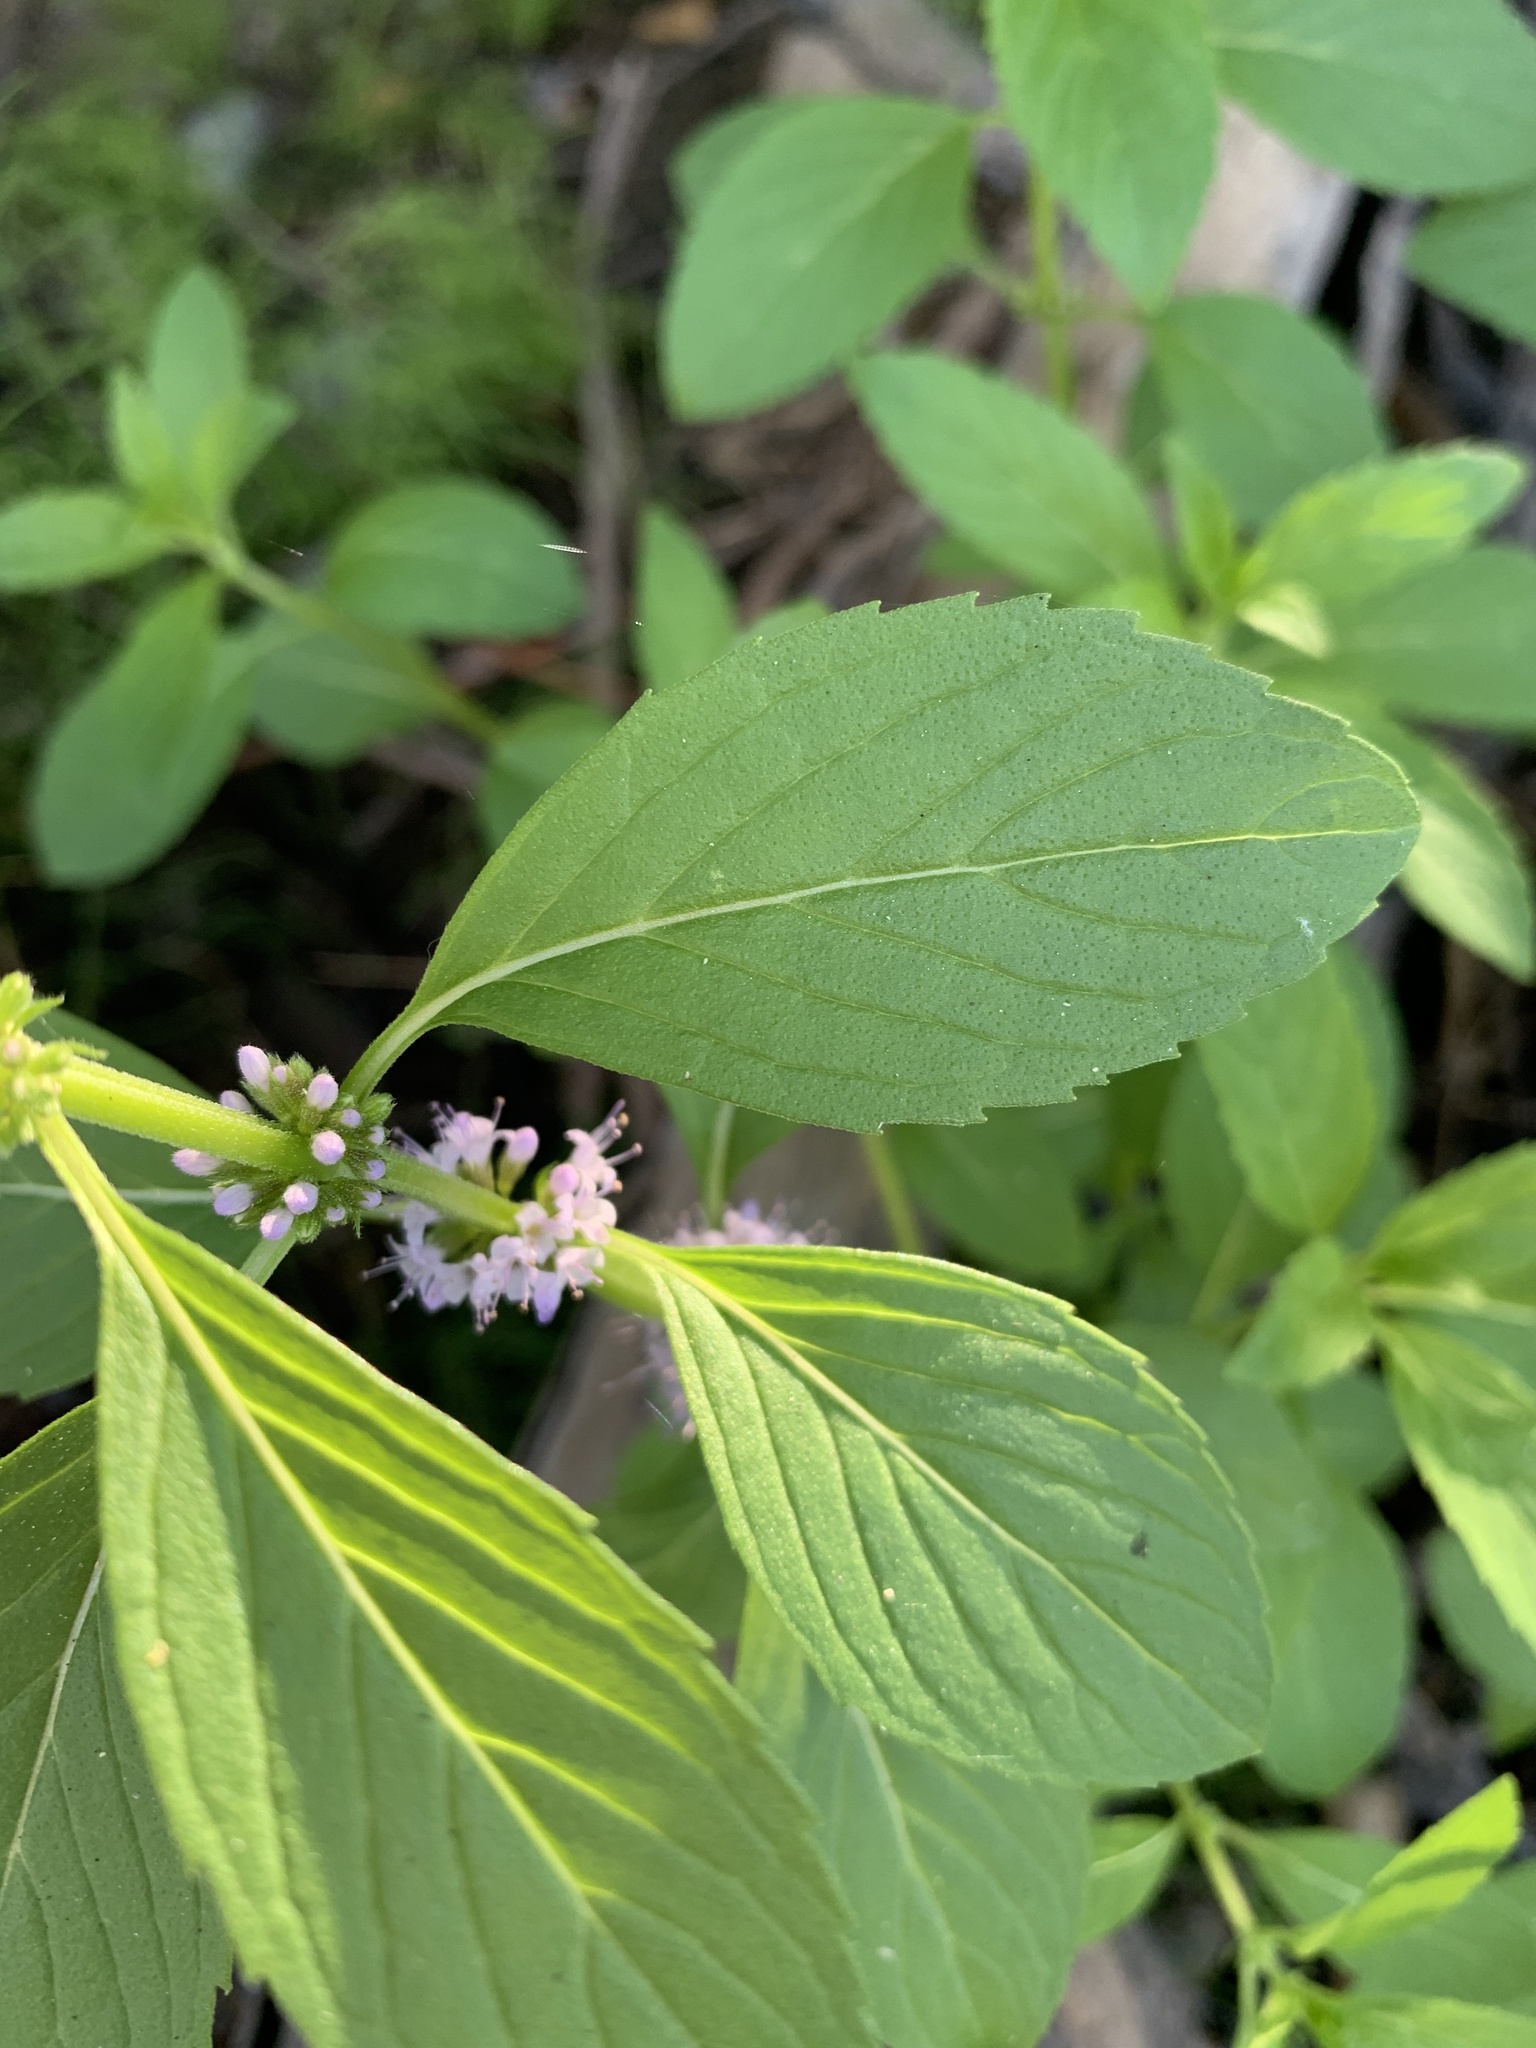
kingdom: Plantae
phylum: Tracheophyta
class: Magnoliopsida
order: Lamiales
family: Lamiaceae
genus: Mentha
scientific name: Mentha canadensis
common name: American corn mint
